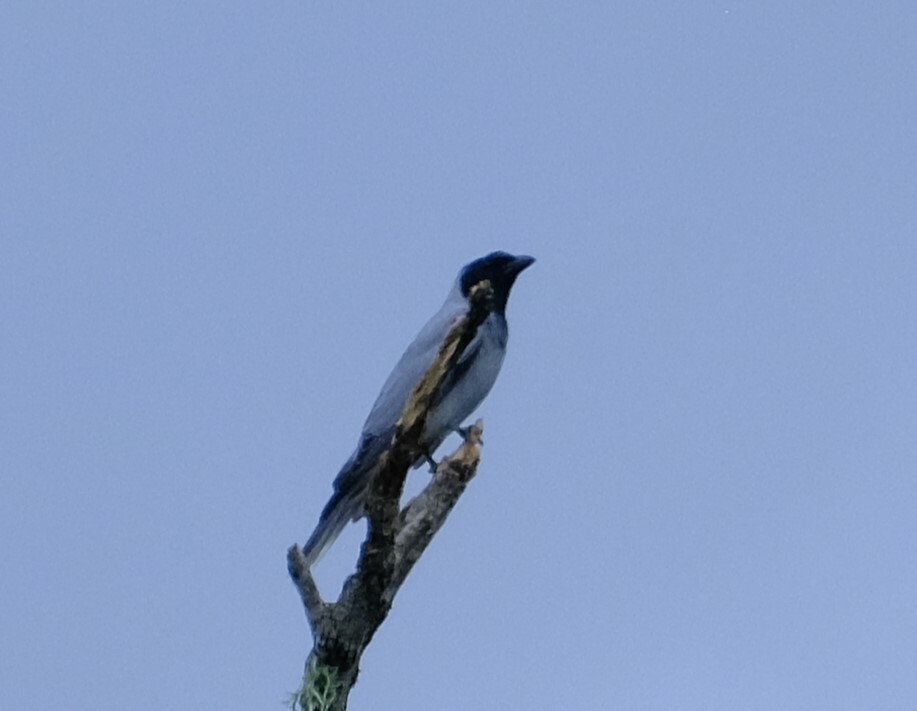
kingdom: Animalia
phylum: Chordata
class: Aves
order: Passeriformes
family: Campephagidae
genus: Coracina
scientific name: Coracina novaehollandiae
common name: Black-faced cuckooshrike
